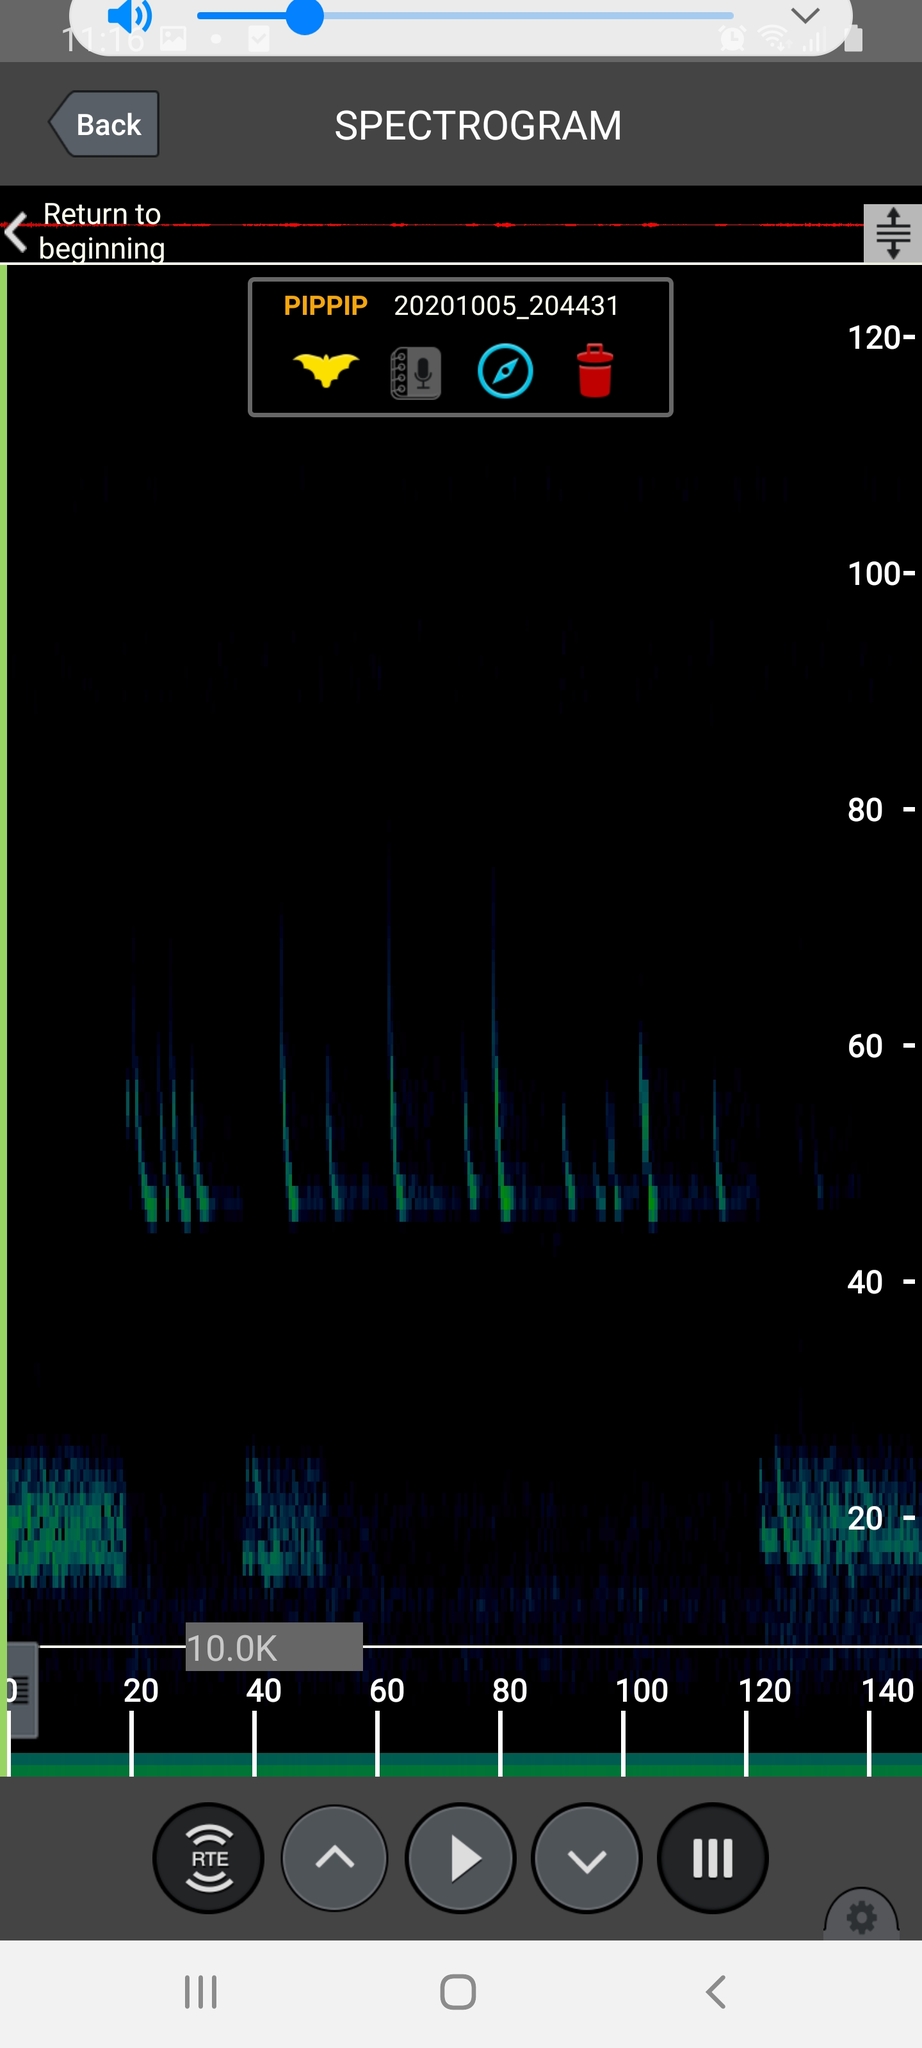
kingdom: Animalia
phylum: Chordata
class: Mammalia
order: Chiroptera
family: Vespertilionidae
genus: Pipistrellus
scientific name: Pipistrellus pipistrellus
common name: Common pipistrelle
